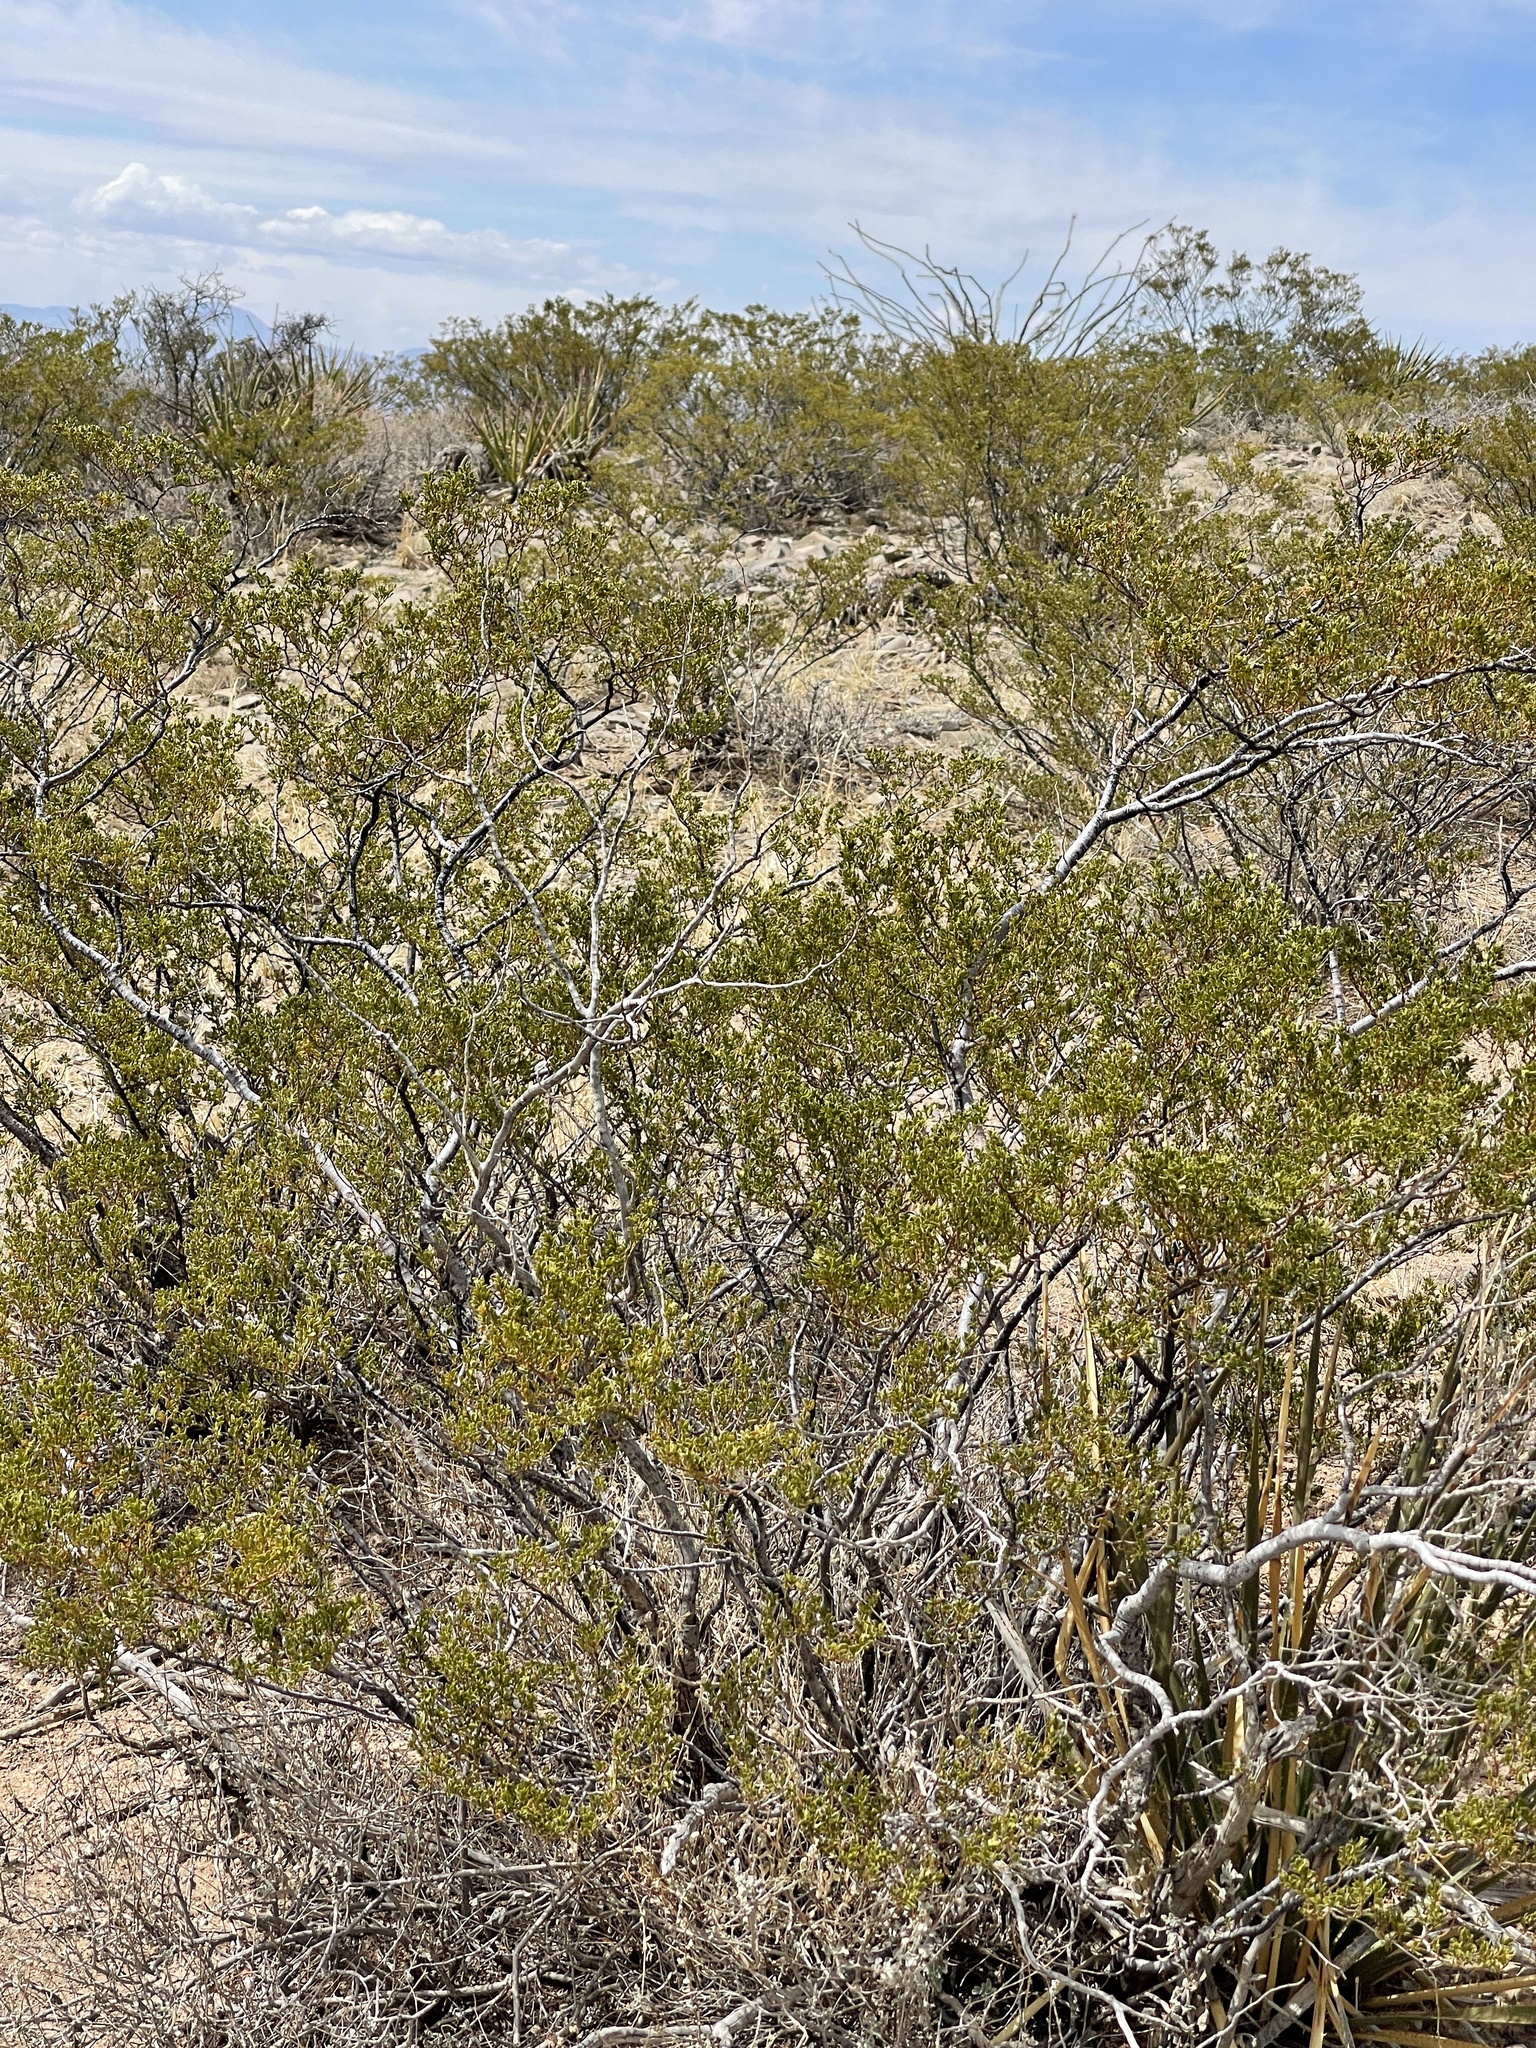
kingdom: Plantae
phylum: Tracheophyta
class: Magnoliopsida
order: Zygophyllales
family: Zygophyllaceae
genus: Larrea
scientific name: Larrea tridentata
